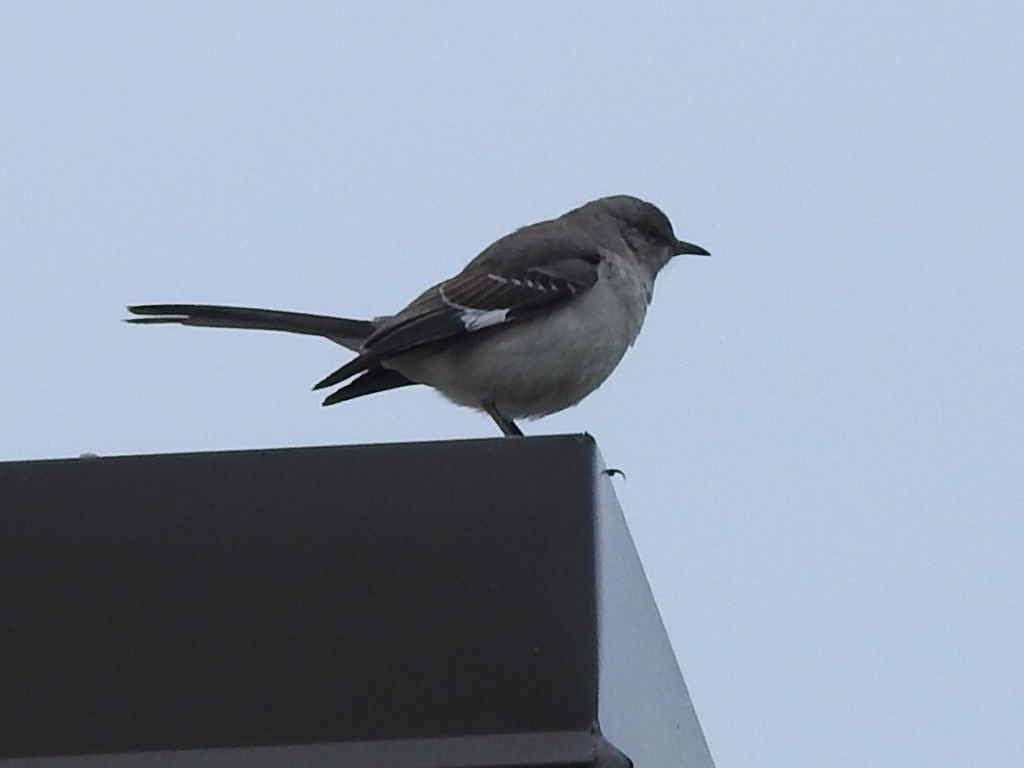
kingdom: Animalia
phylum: Chordata
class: Aves
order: Passeriformes
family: Mimidae
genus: Mimus
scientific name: Mimus polyglottos
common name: Northern mockingbird
